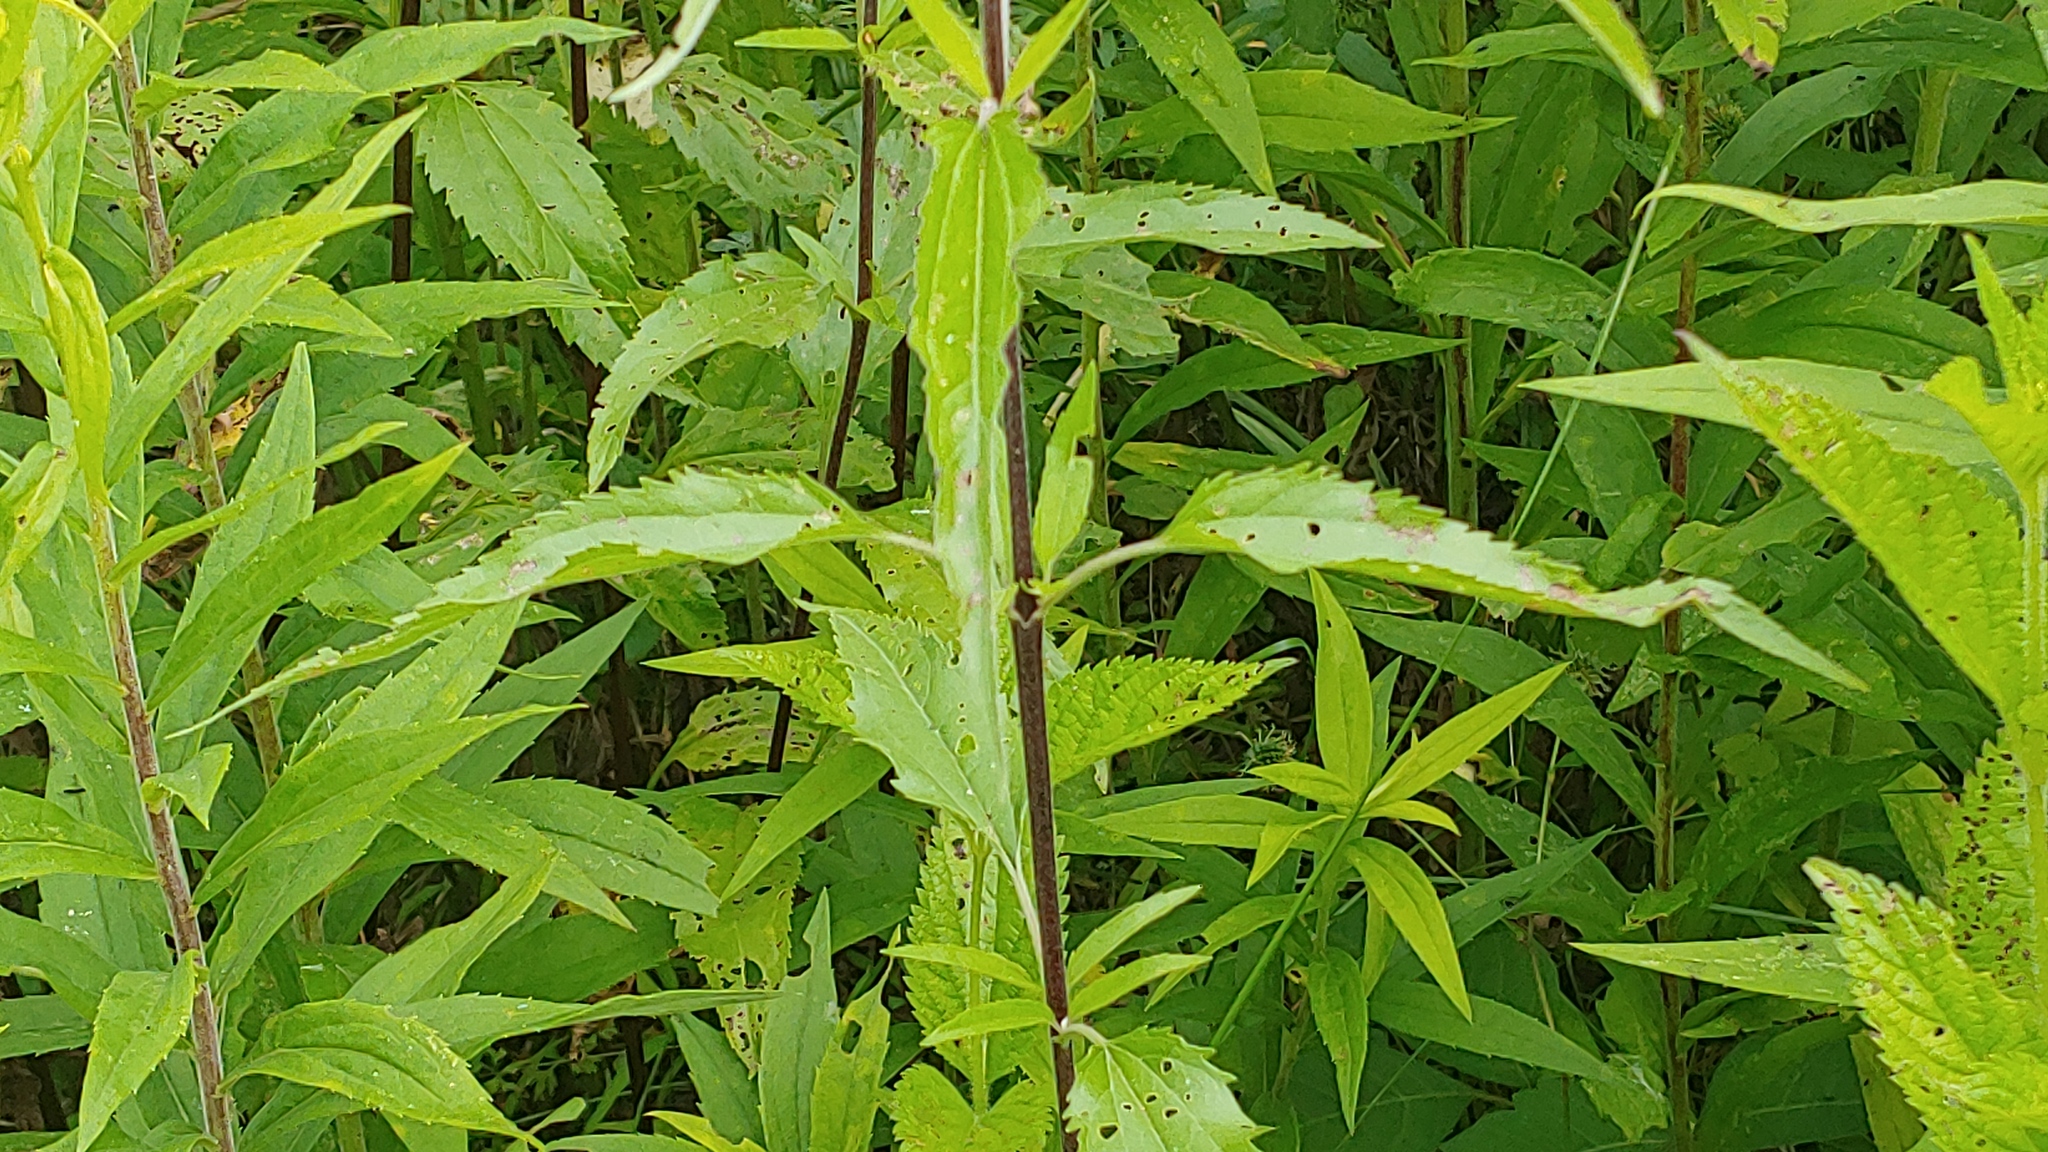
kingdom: Plantae
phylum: Tracheophyta
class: Magnoliopsida
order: Asterales
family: Asteraceae
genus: Eupatorium
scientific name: Eupatorium serotinum
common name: Late boneset
